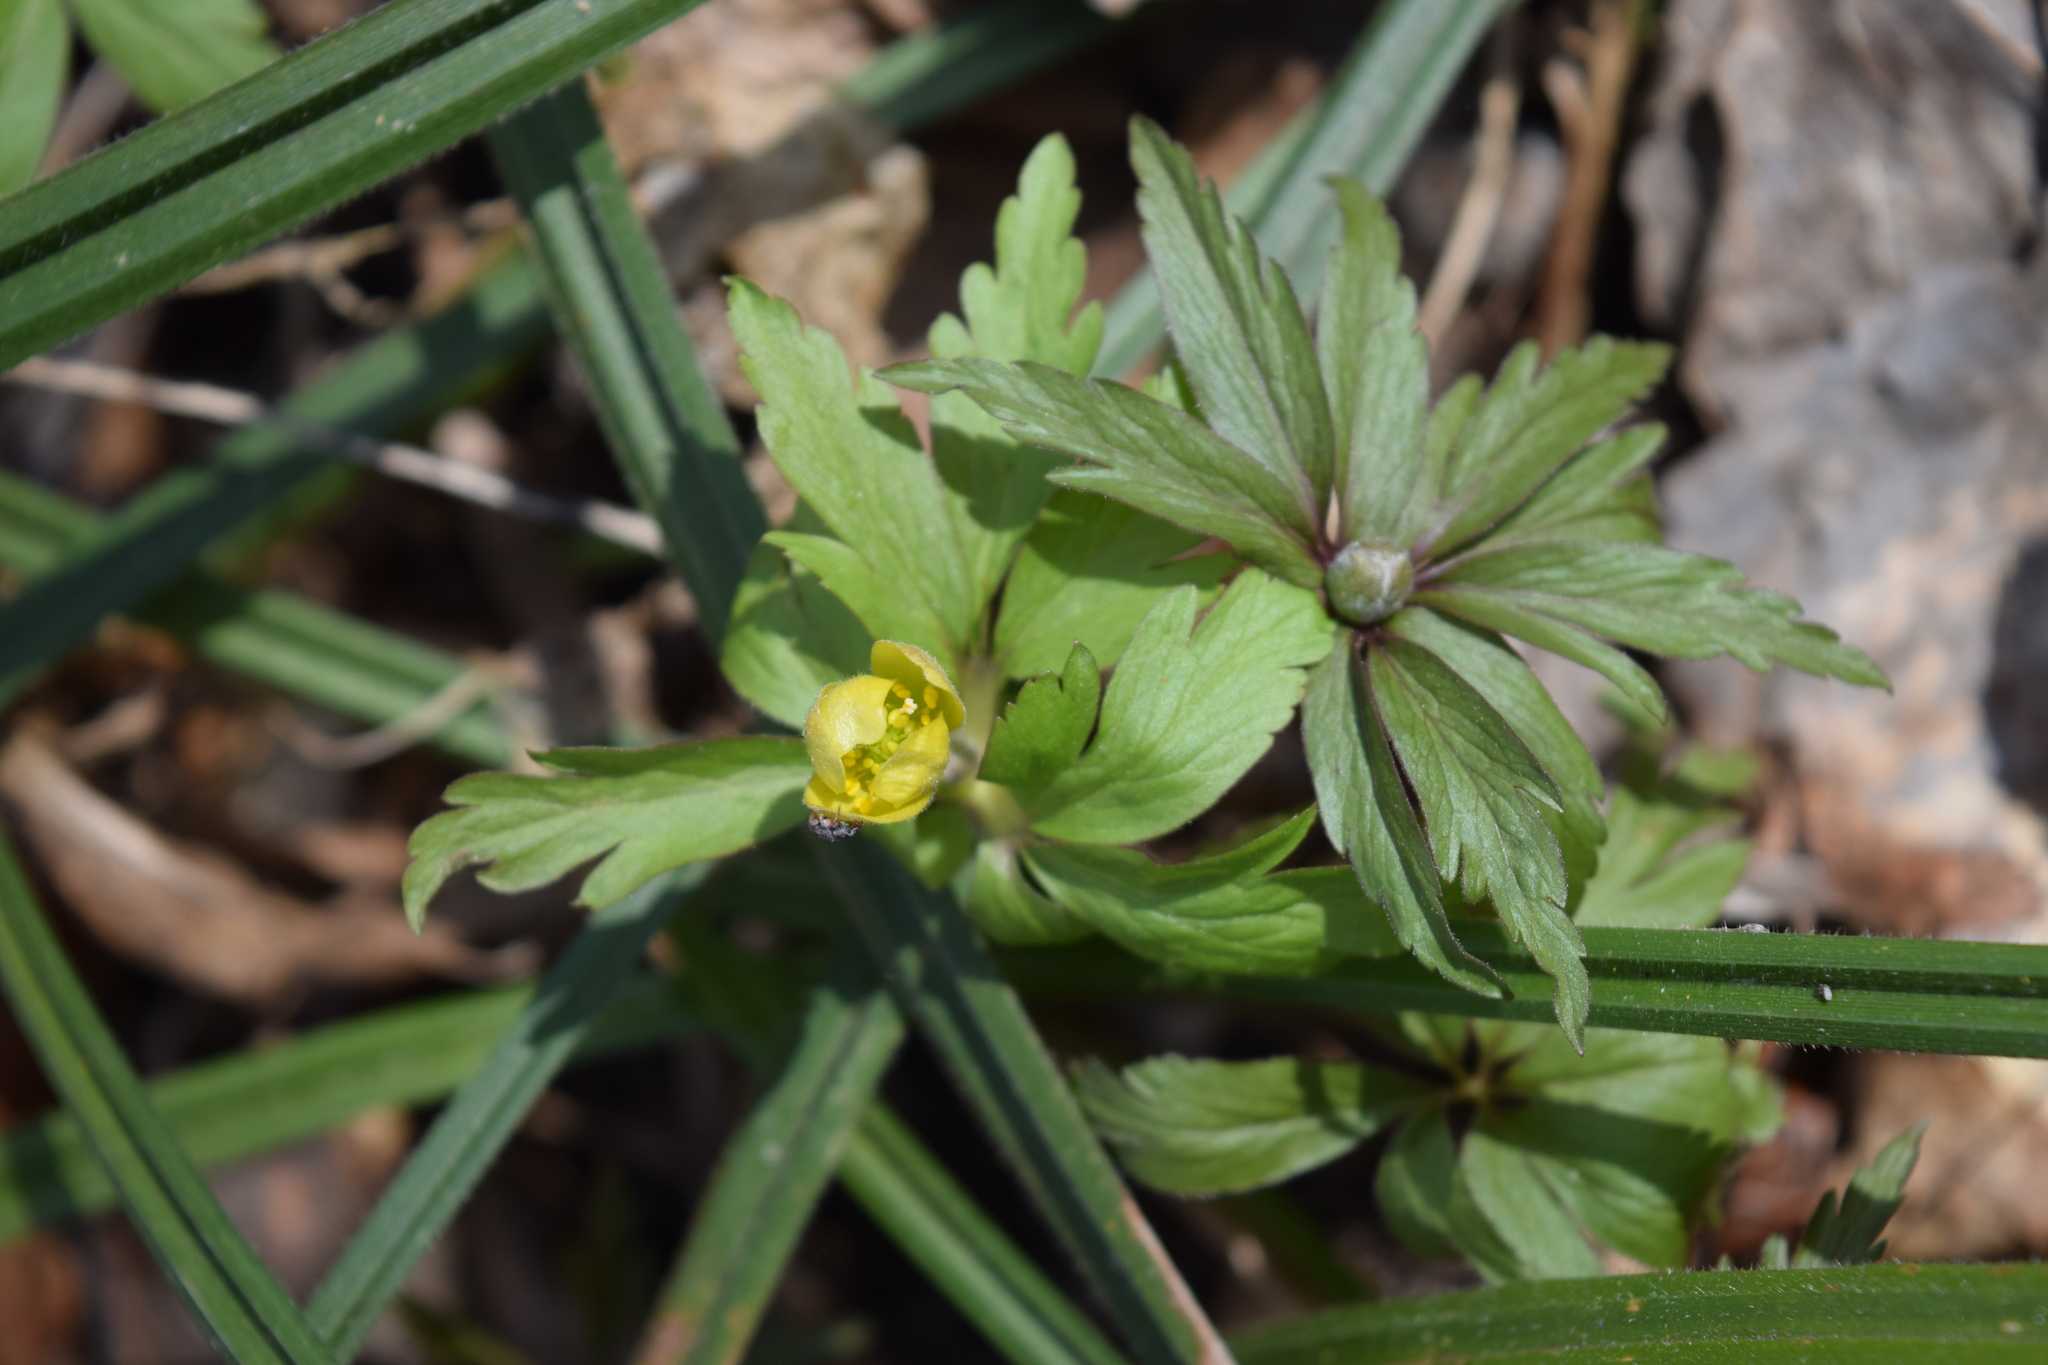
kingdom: Plantae
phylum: Tracheophyta
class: Magnoliopsida
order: Ranunculales
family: Ranunculaceae
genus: Anemone
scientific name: Anemone ranunculoides
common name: Yellow anemone
